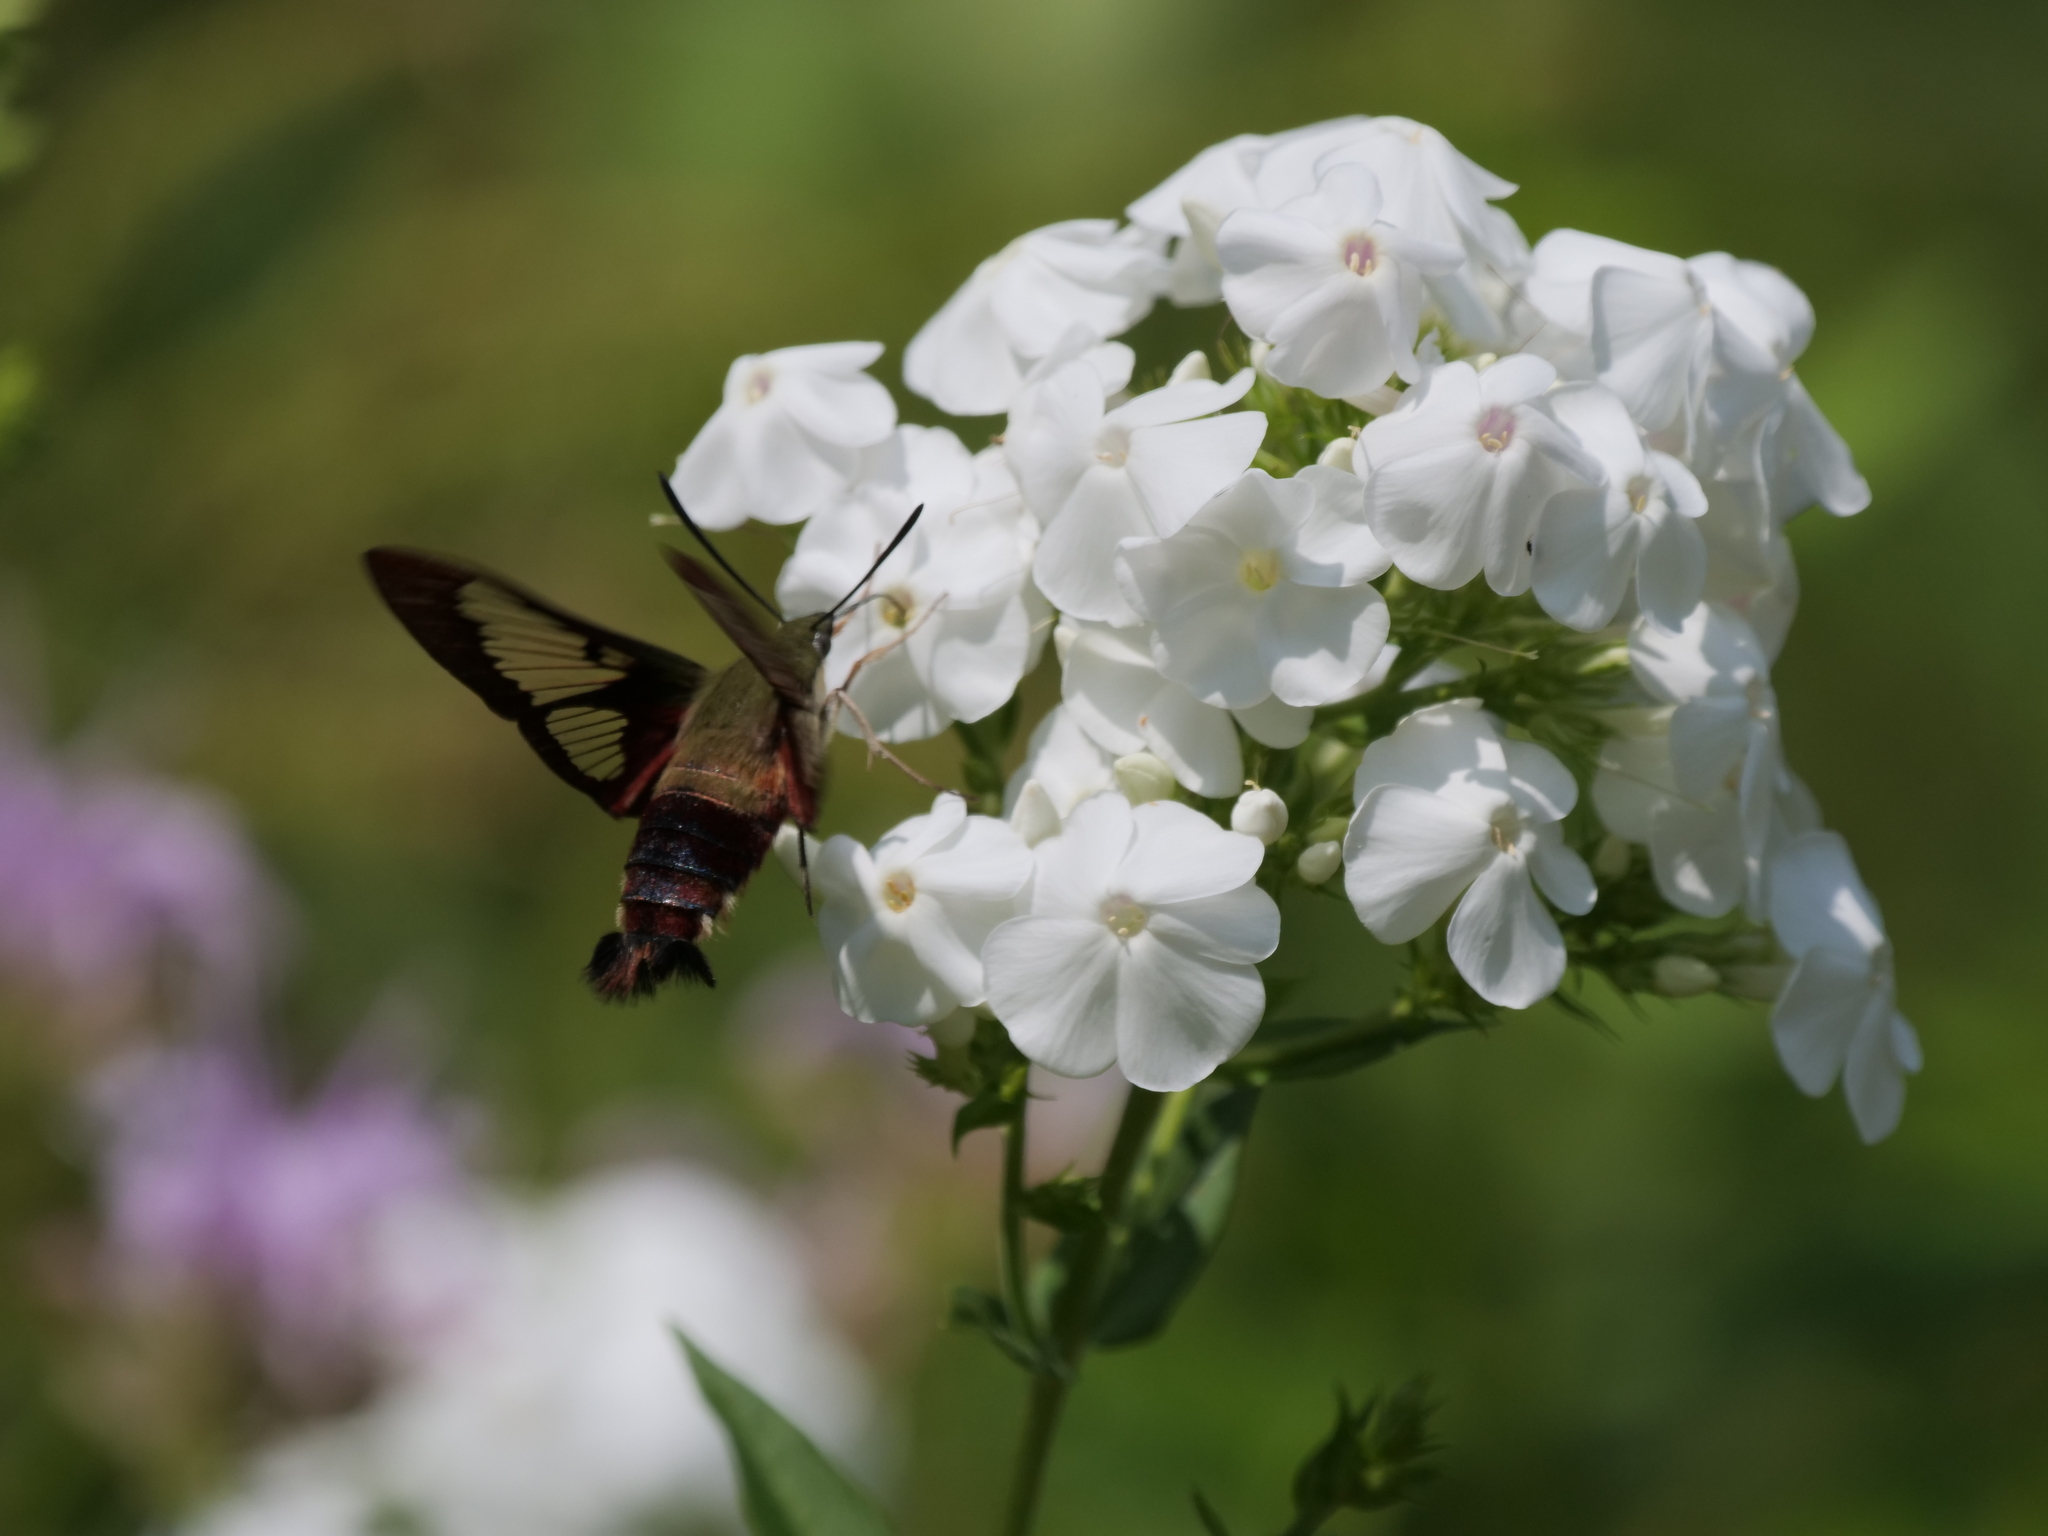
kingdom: Animalia
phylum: Arthropoda
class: Insecta
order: Lepidoptera
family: Sphingidae
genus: Hemaris
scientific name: Hemaris thysbe
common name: Common clear-wing
